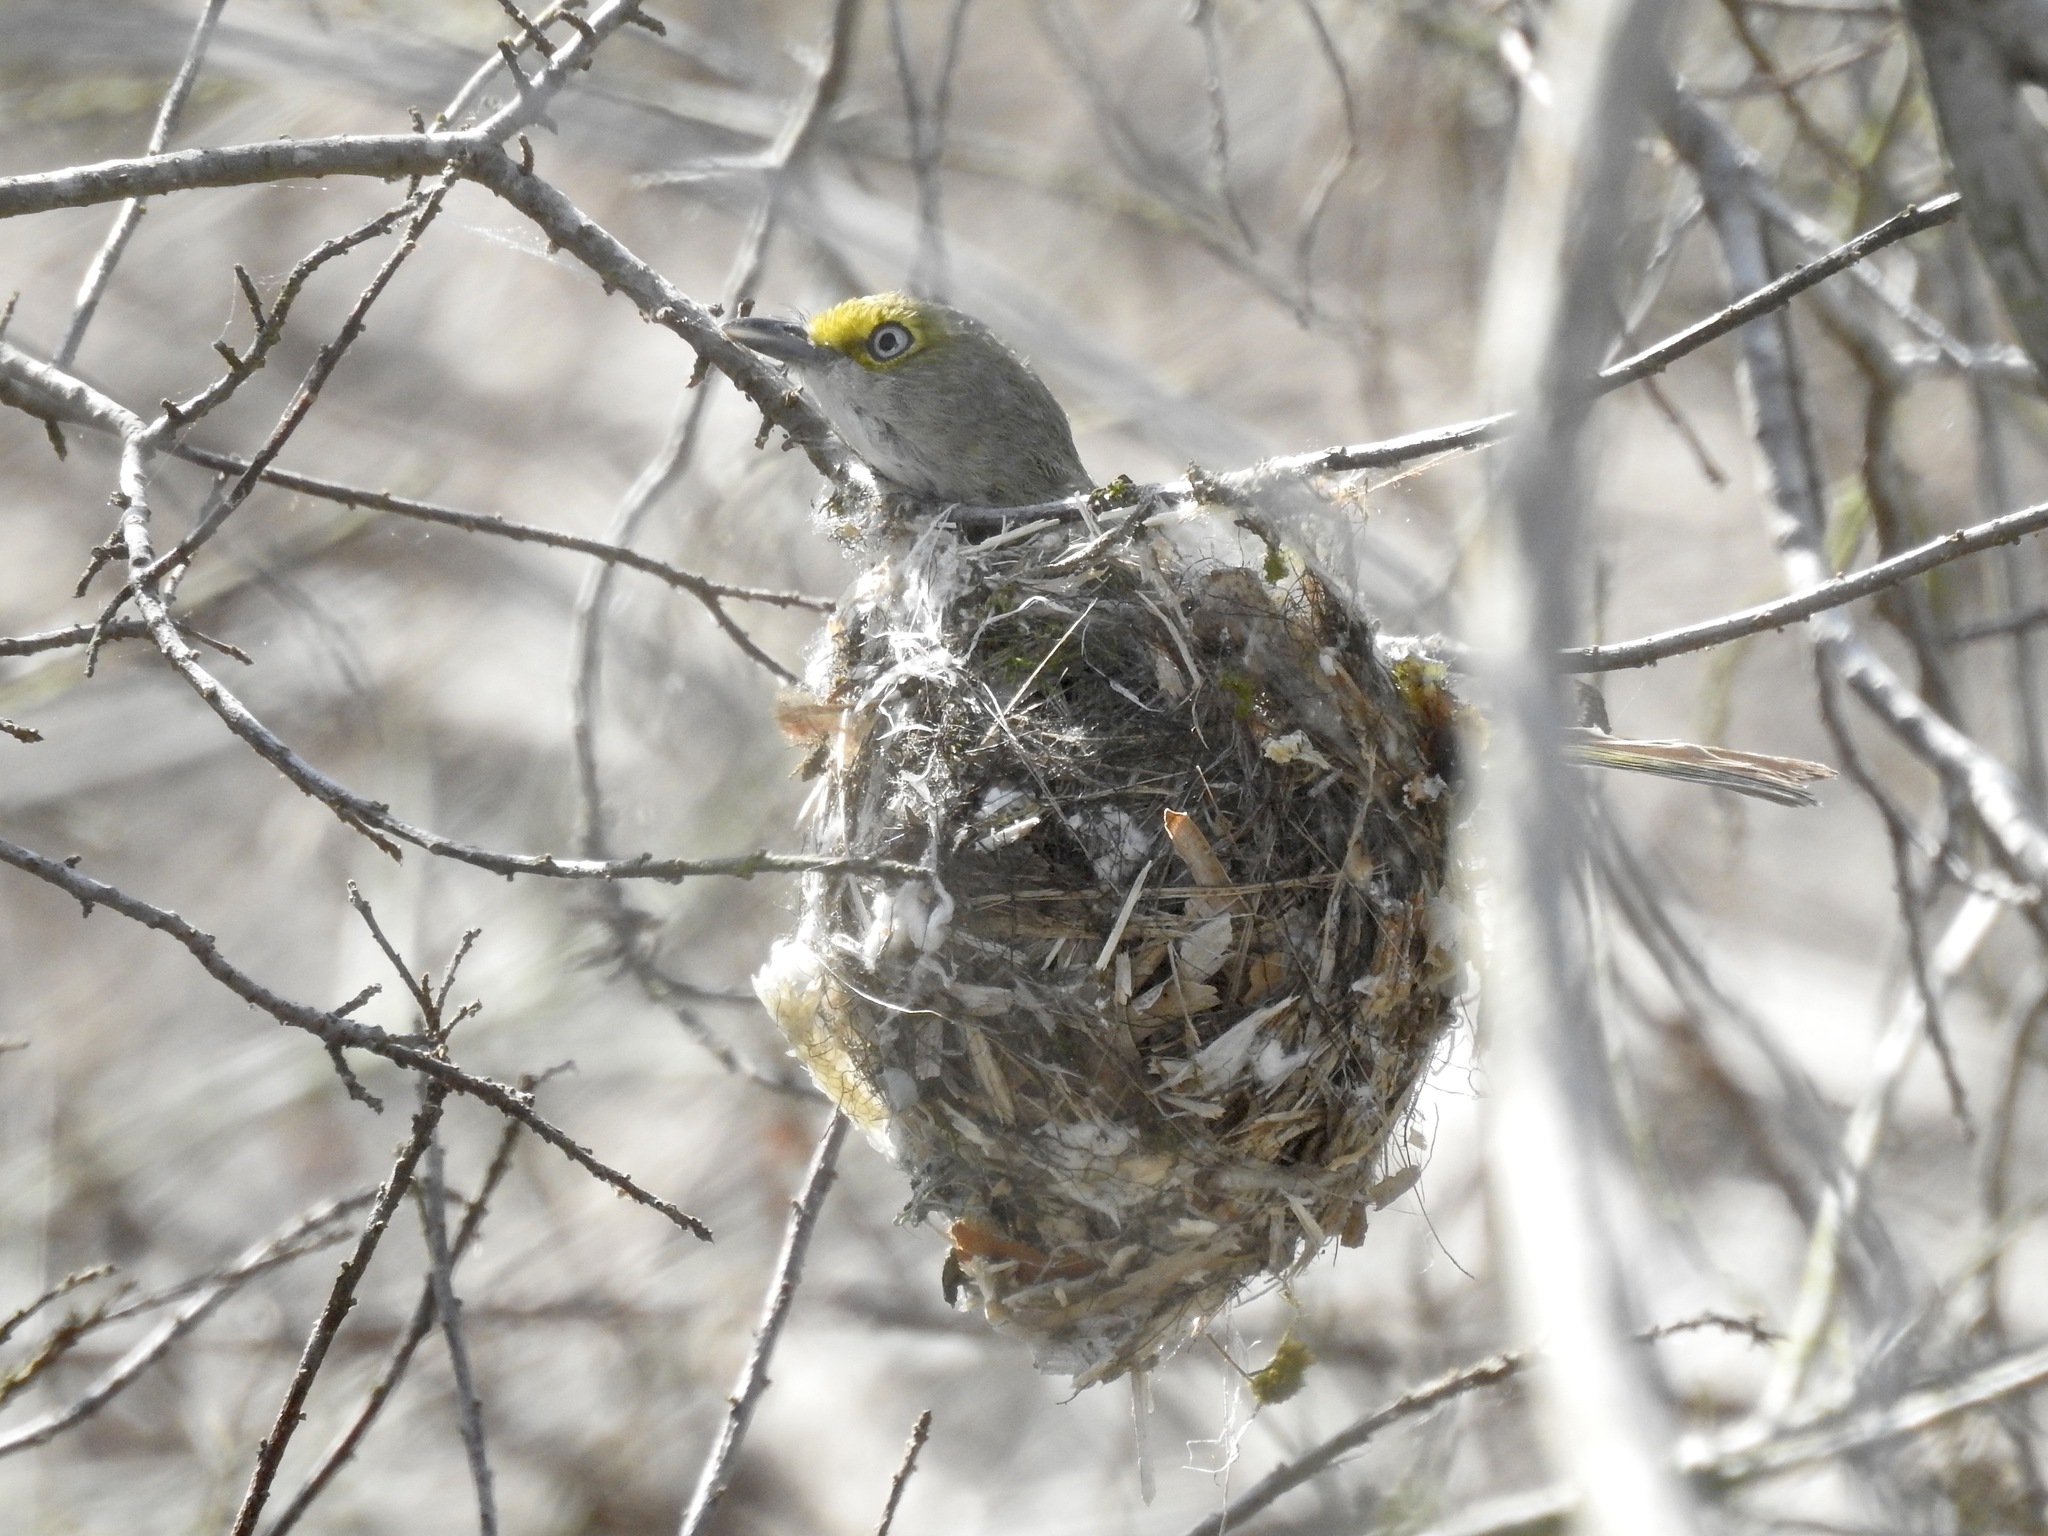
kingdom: Animalia
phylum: Chordata
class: Aves
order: Passeriformes
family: Vireonidae
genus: Vireo
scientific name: Vireo griseus
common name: White-eyed vireo
